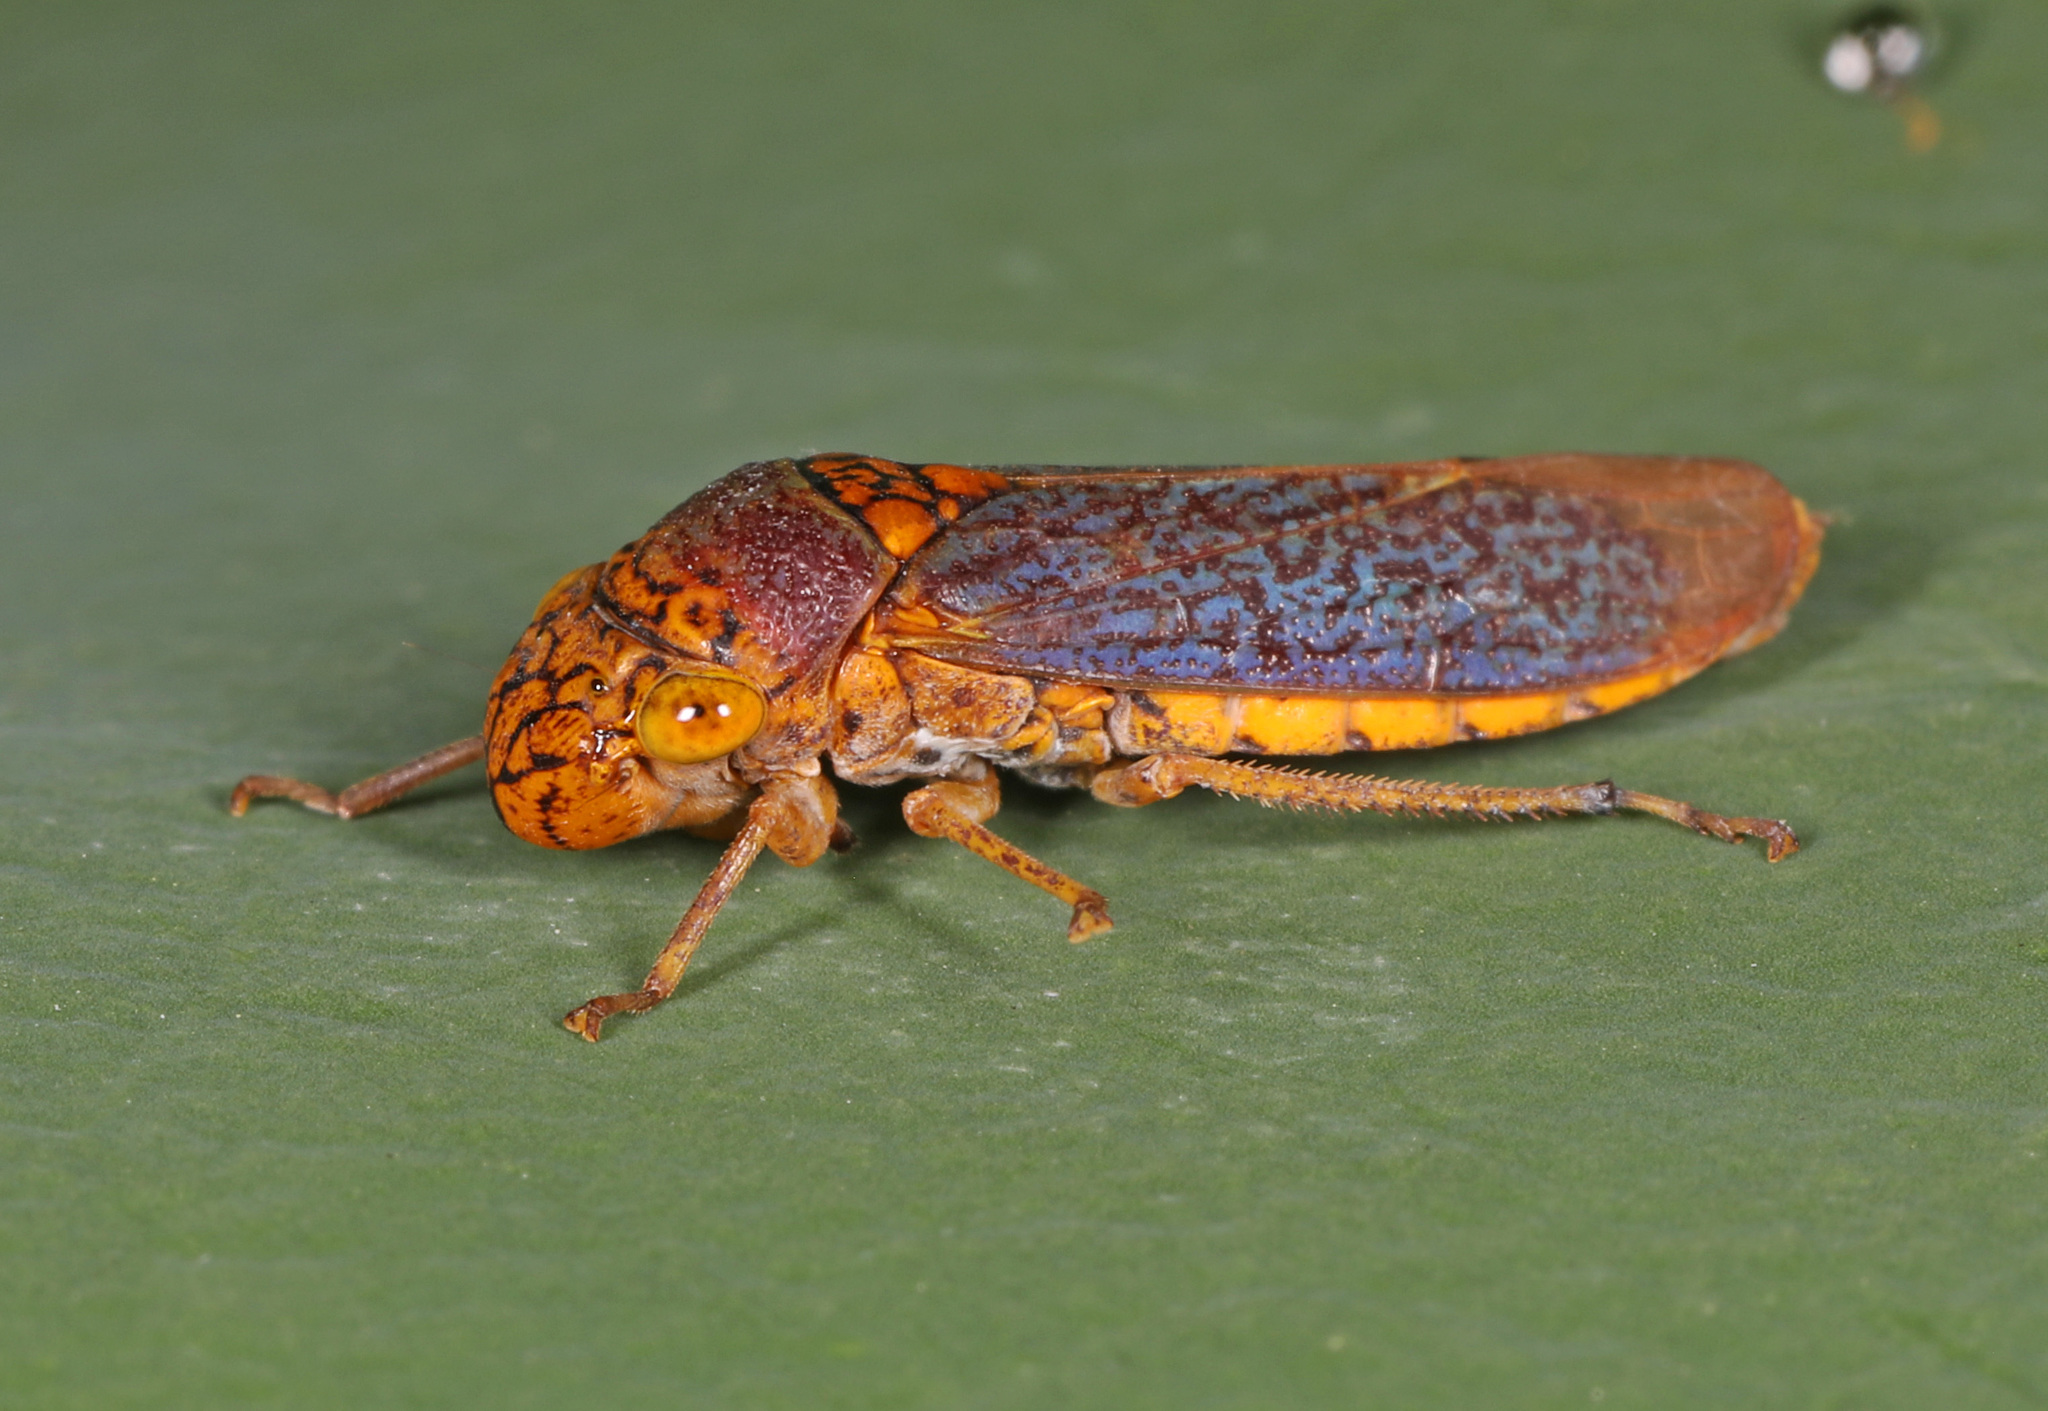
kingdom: Animalia
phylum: Arthropoda
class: Insecta
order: Hemiptera
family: Cicadellidae
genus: Oncometopia
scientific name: Oncometopia orbona
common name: Broad-headed sharpshooter
